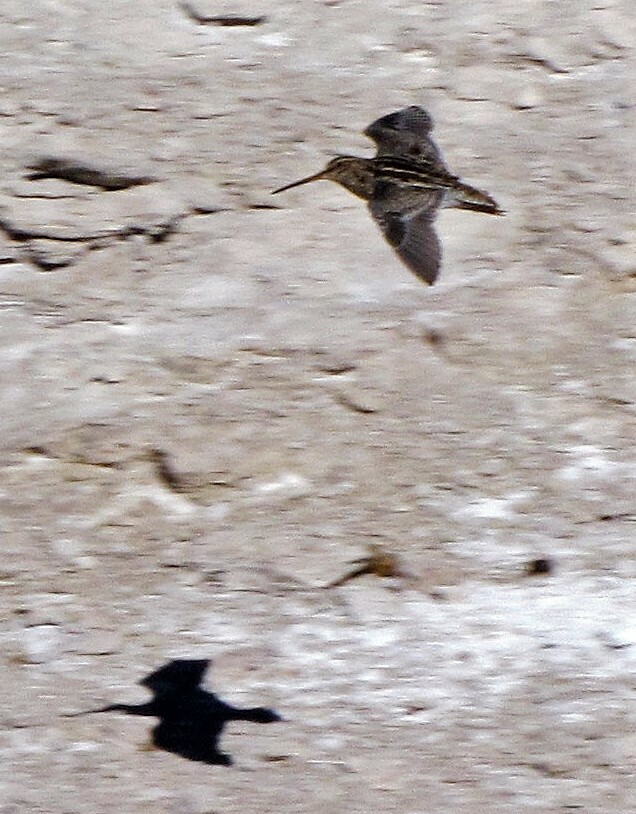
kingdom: Animalia
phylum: Chordata
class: Aves
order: Charadriiformes
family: Scolopacidae
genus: Gallinago
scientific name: Gallinago andina
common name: Puna snipe
